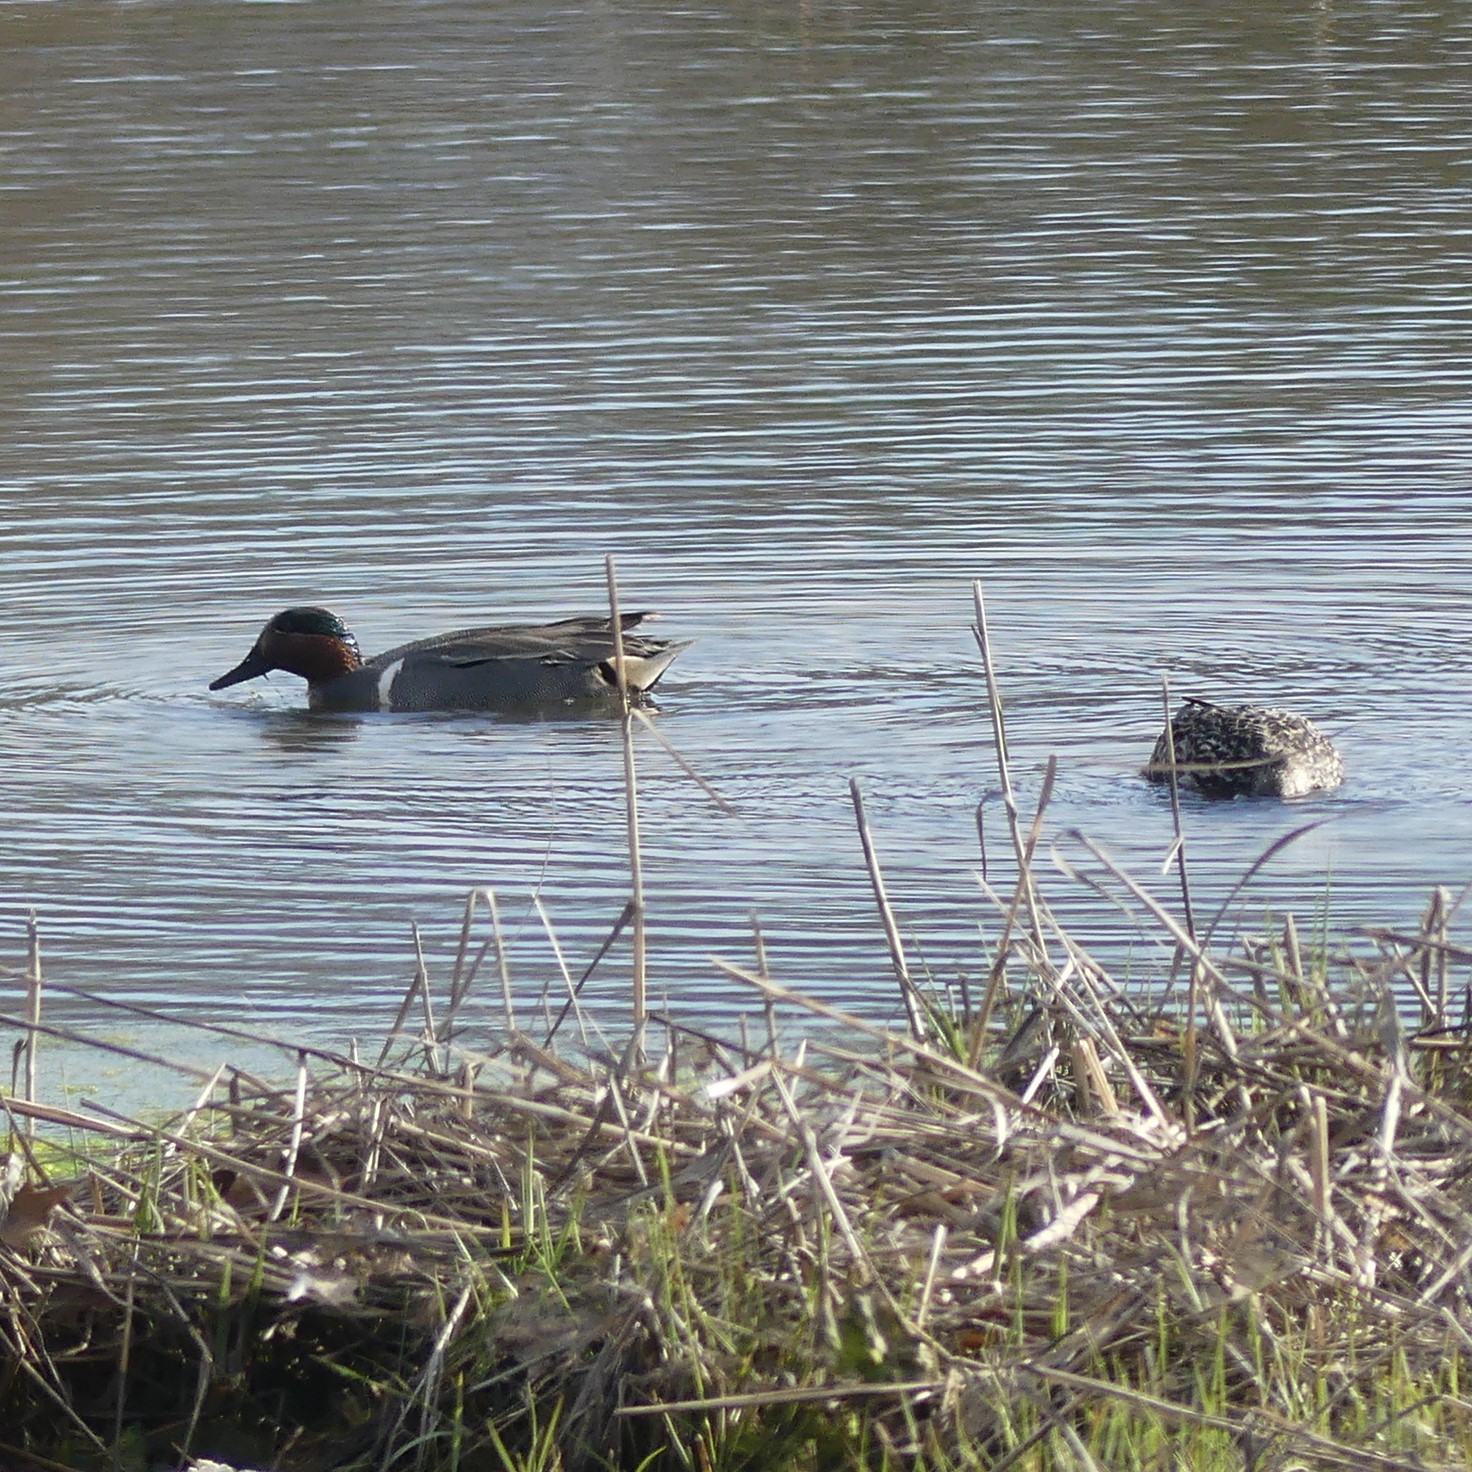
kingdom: Animalia
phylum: Chordata
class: Aves
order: Anseriformes
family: Anatidae
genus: Anas
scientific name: Anas crecca
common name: Eurasian teal
